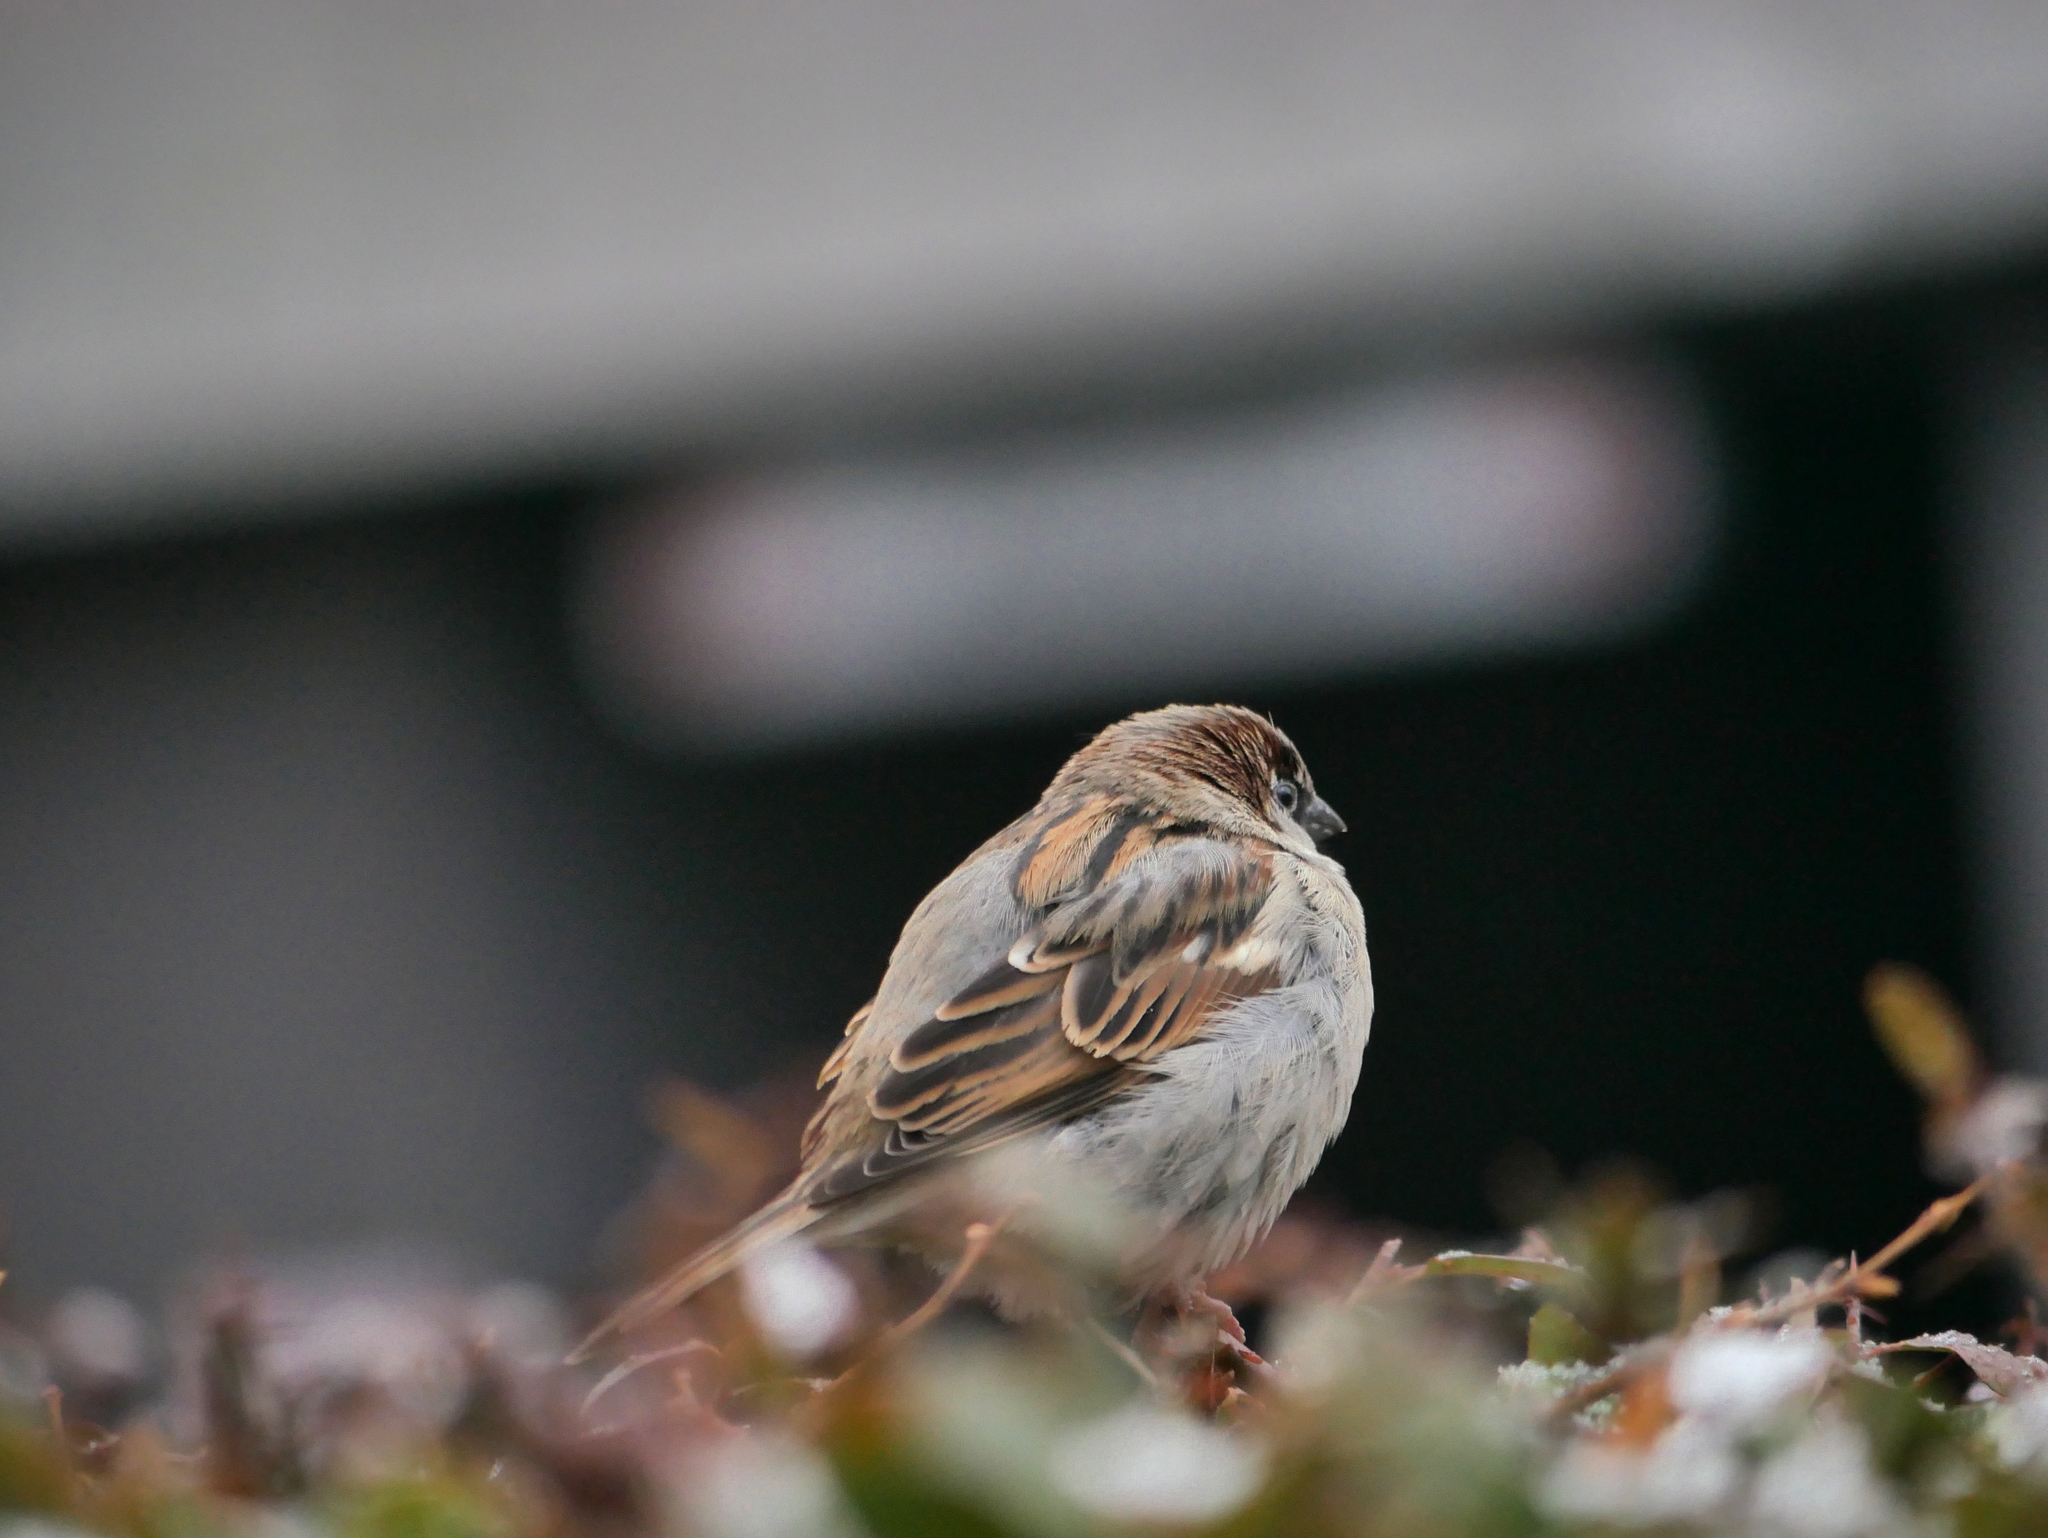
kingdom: Animalia
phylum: Chordata
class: Aves
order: Passeriformes
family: Passeridae
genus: Passer
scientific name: Passer domesticus
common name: House sparrow
